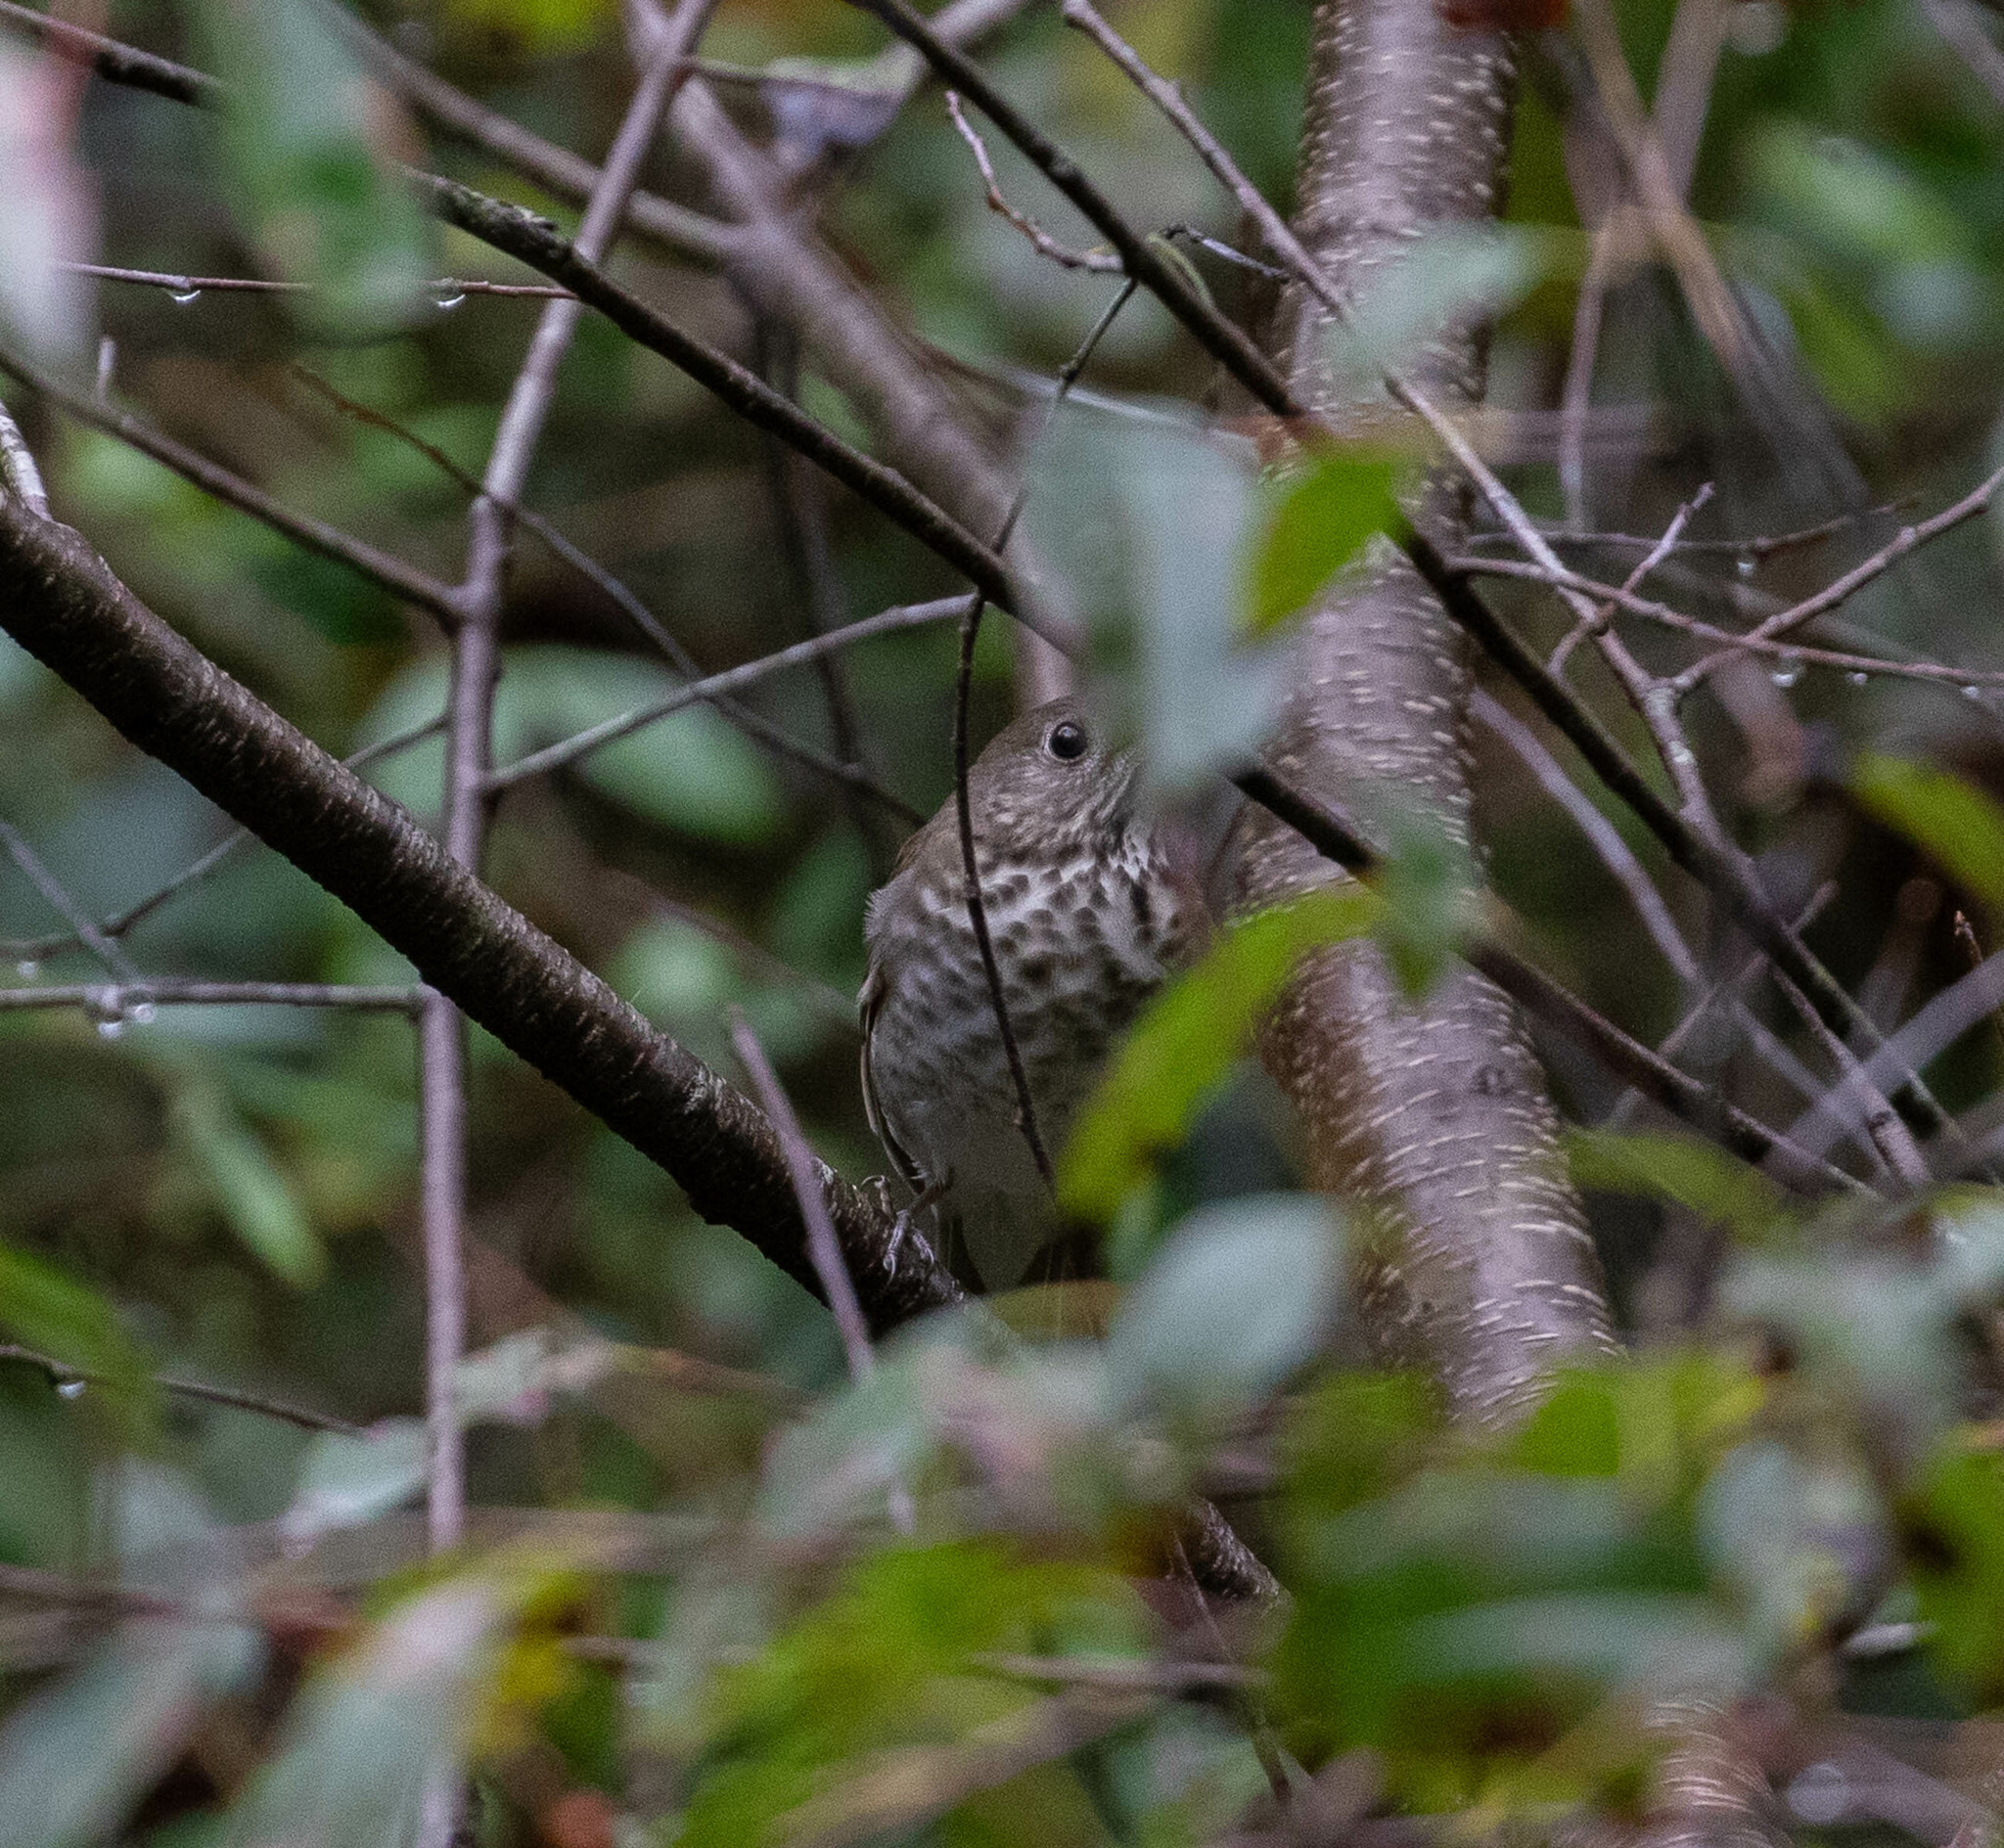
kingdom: Animalia
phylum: Chordata
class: Aves
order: Passeriformes
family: Turdidae
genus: Catharus
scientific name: Catharus minimus
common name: Grey-cheeked thrush
